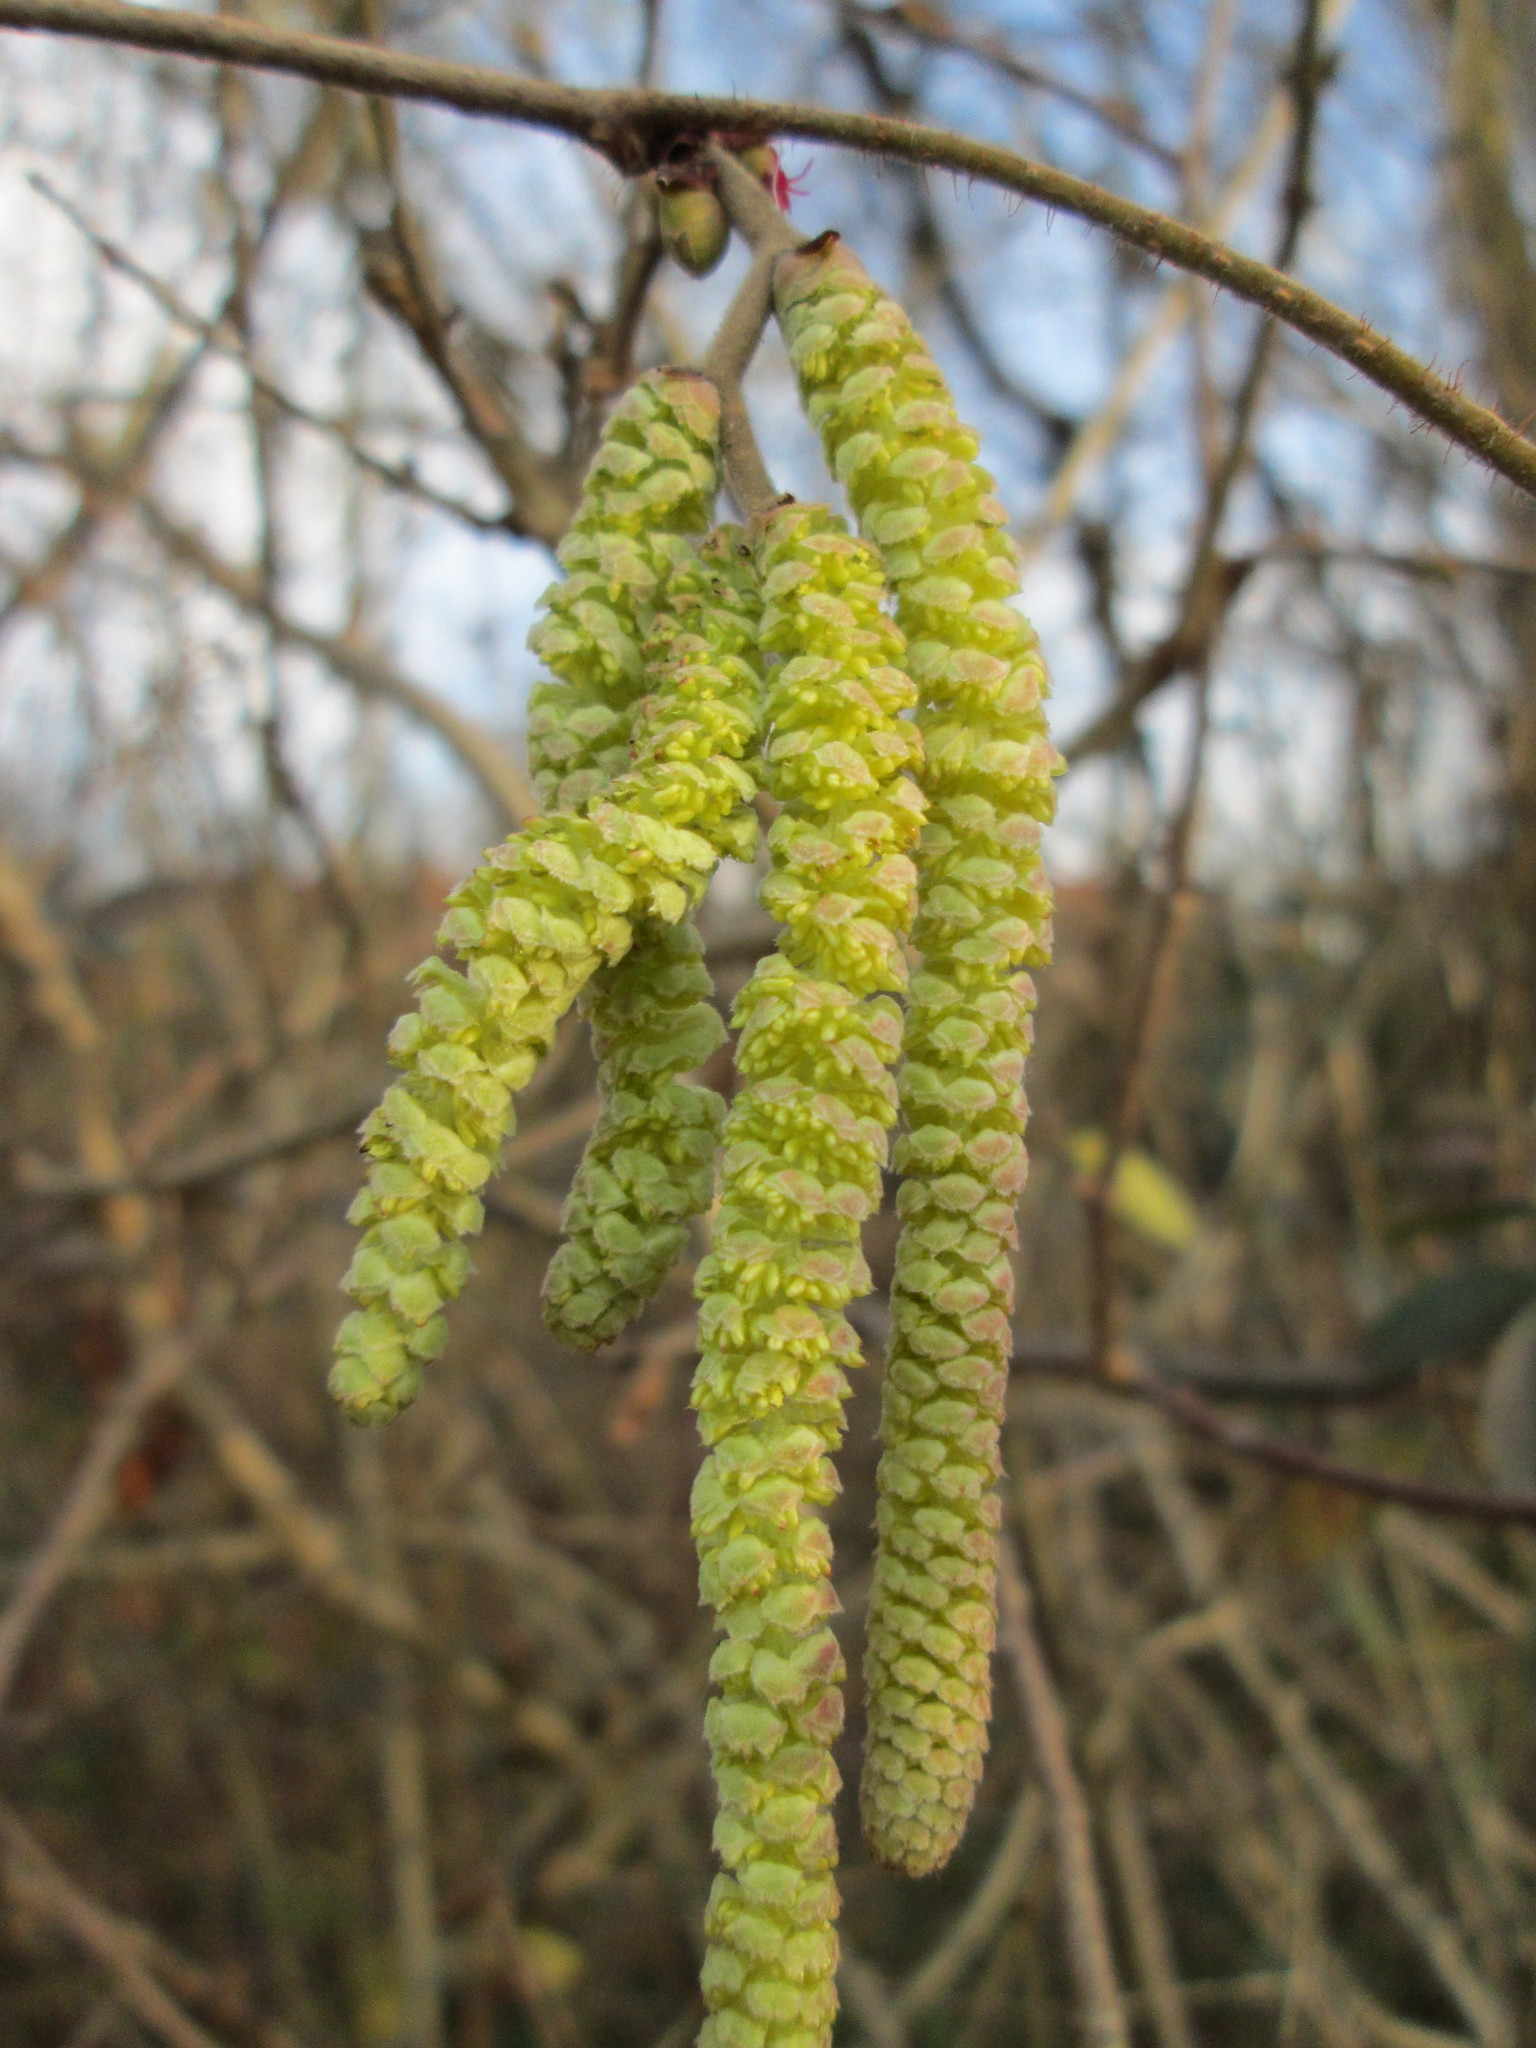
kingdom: Plantae
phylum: Tracheophyta
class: Magnoliopsida
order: Fagales
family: Betulaceae
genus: Corylus
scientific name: Corylus avellana
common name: European hazel
